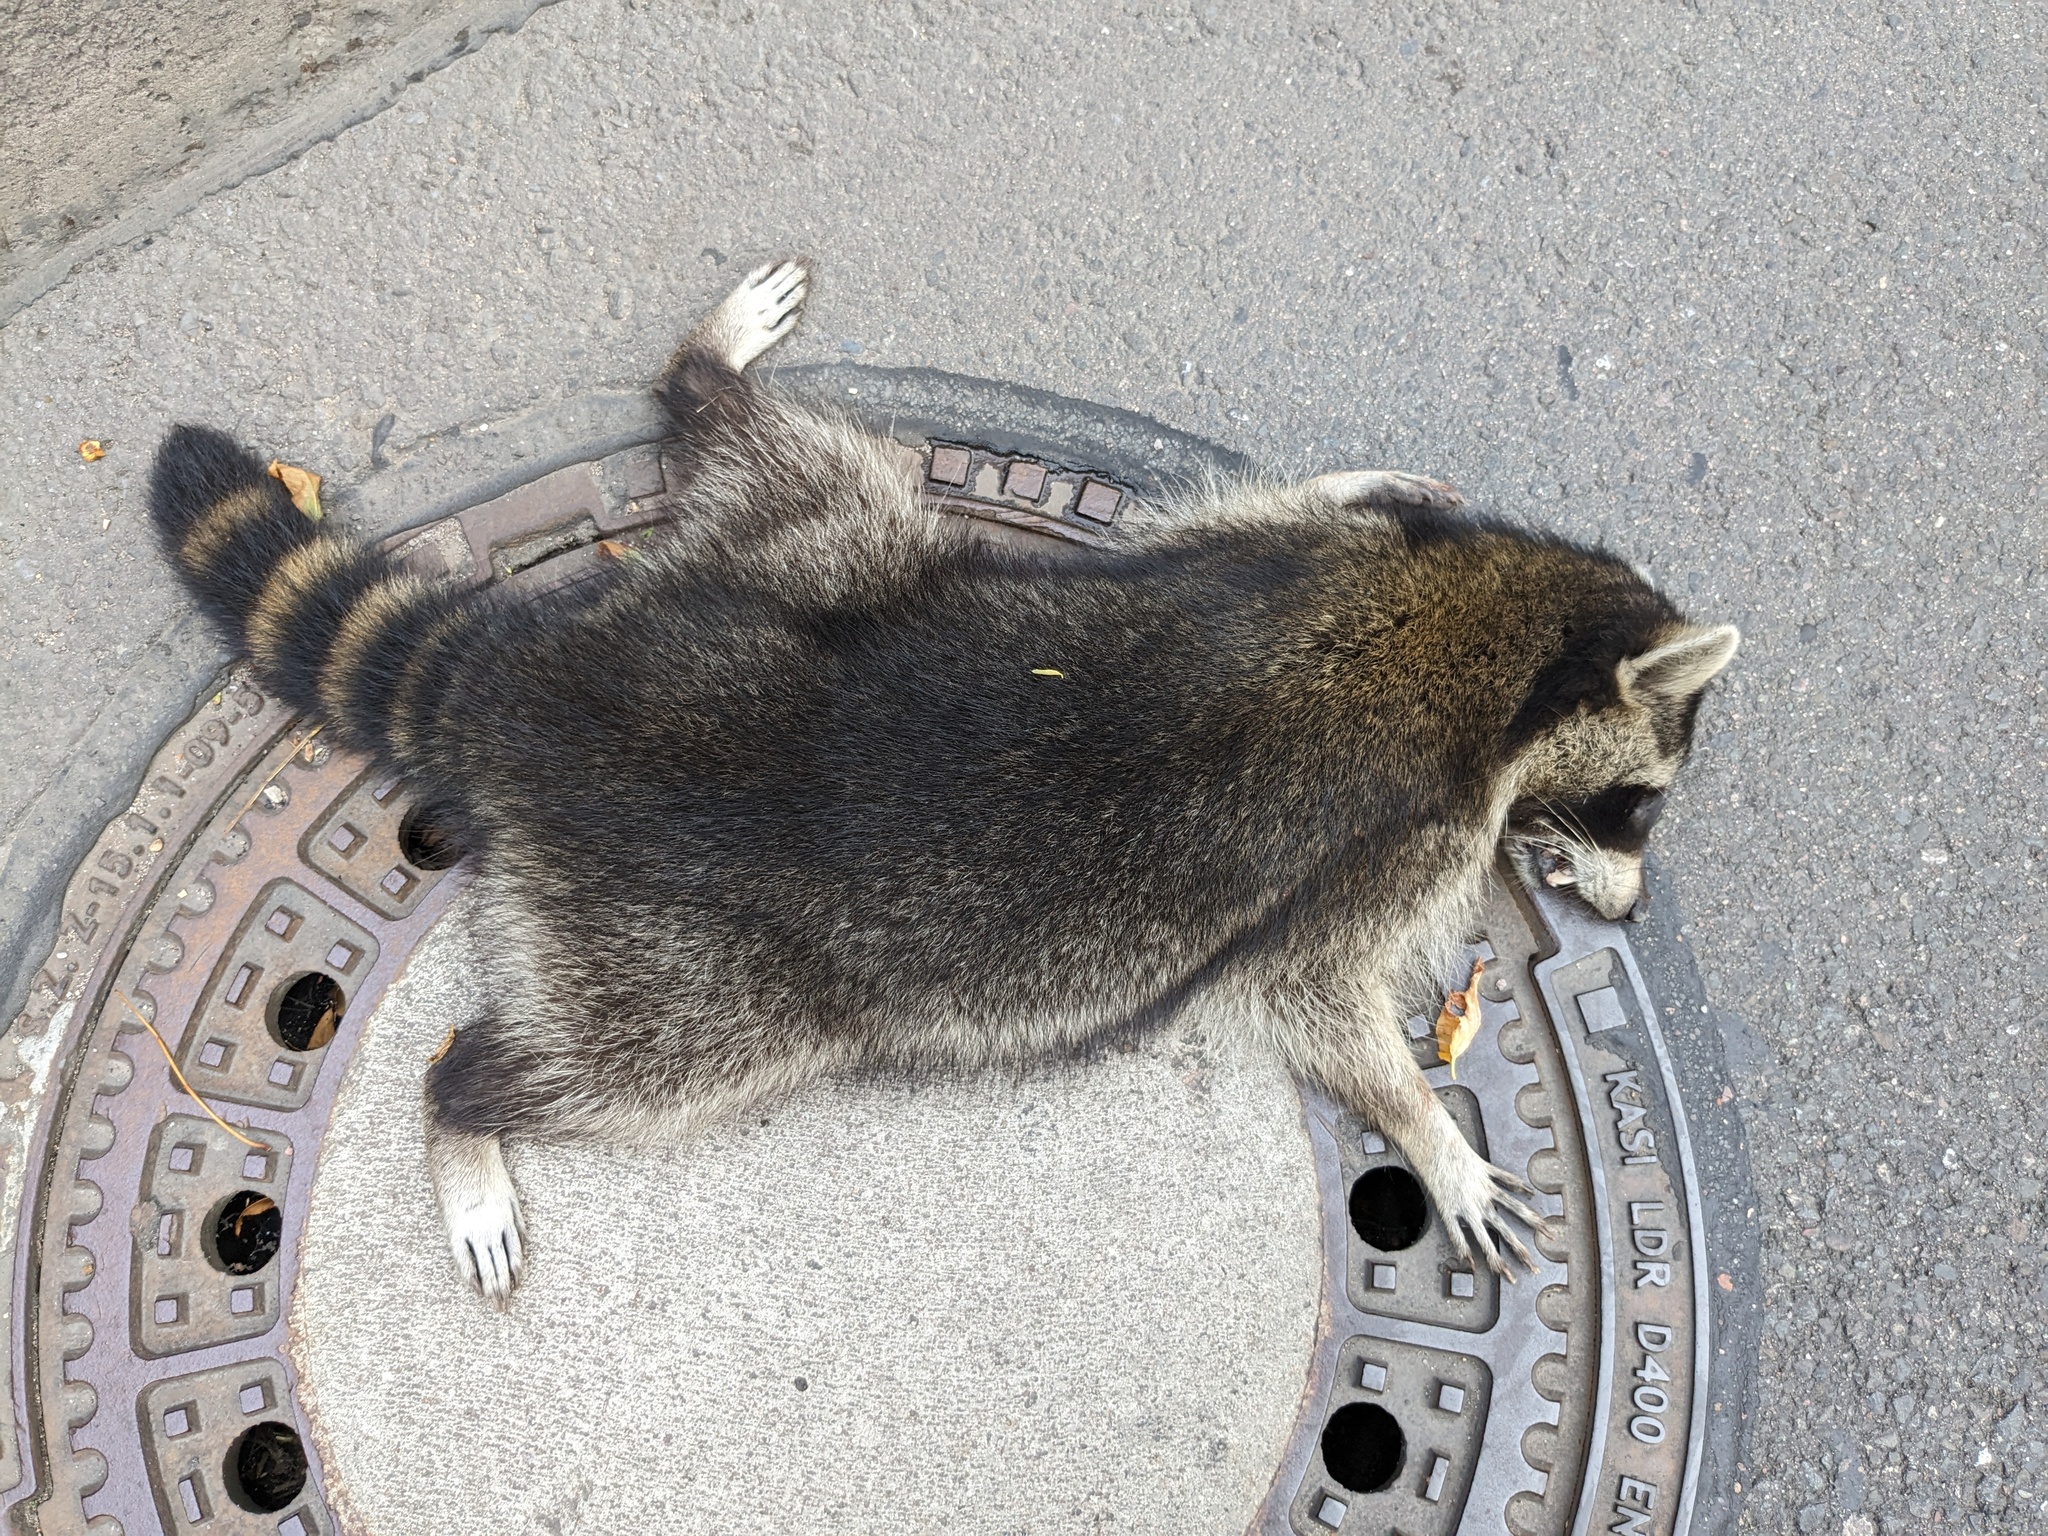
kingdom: Animalia
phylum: Chordata
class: Mammalia
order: Carnivora
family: Procyonidae
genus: Procyon
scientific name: Procyon lotor
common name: Raccoon
